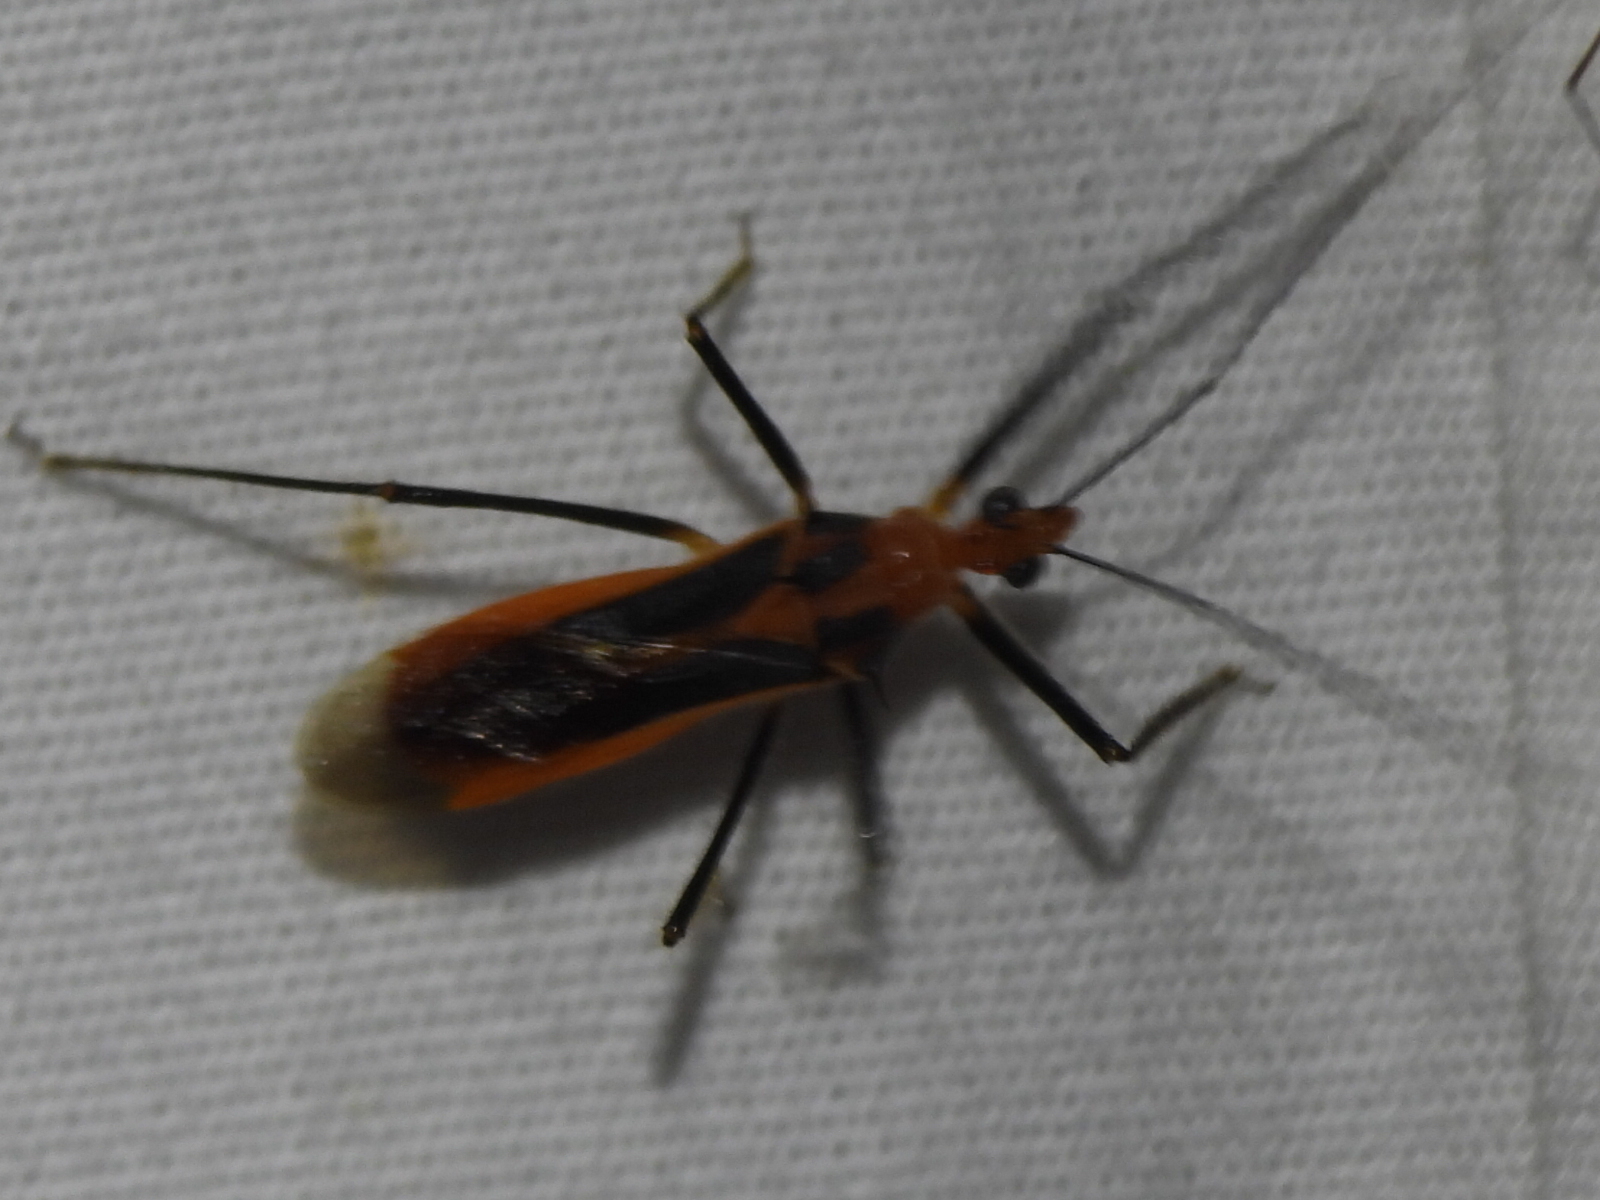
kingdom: Animalia
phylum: Arthropoda
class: Insecta
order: Hemiptera
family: Reduviidae
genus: Repipta
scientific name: Repipta taurus
